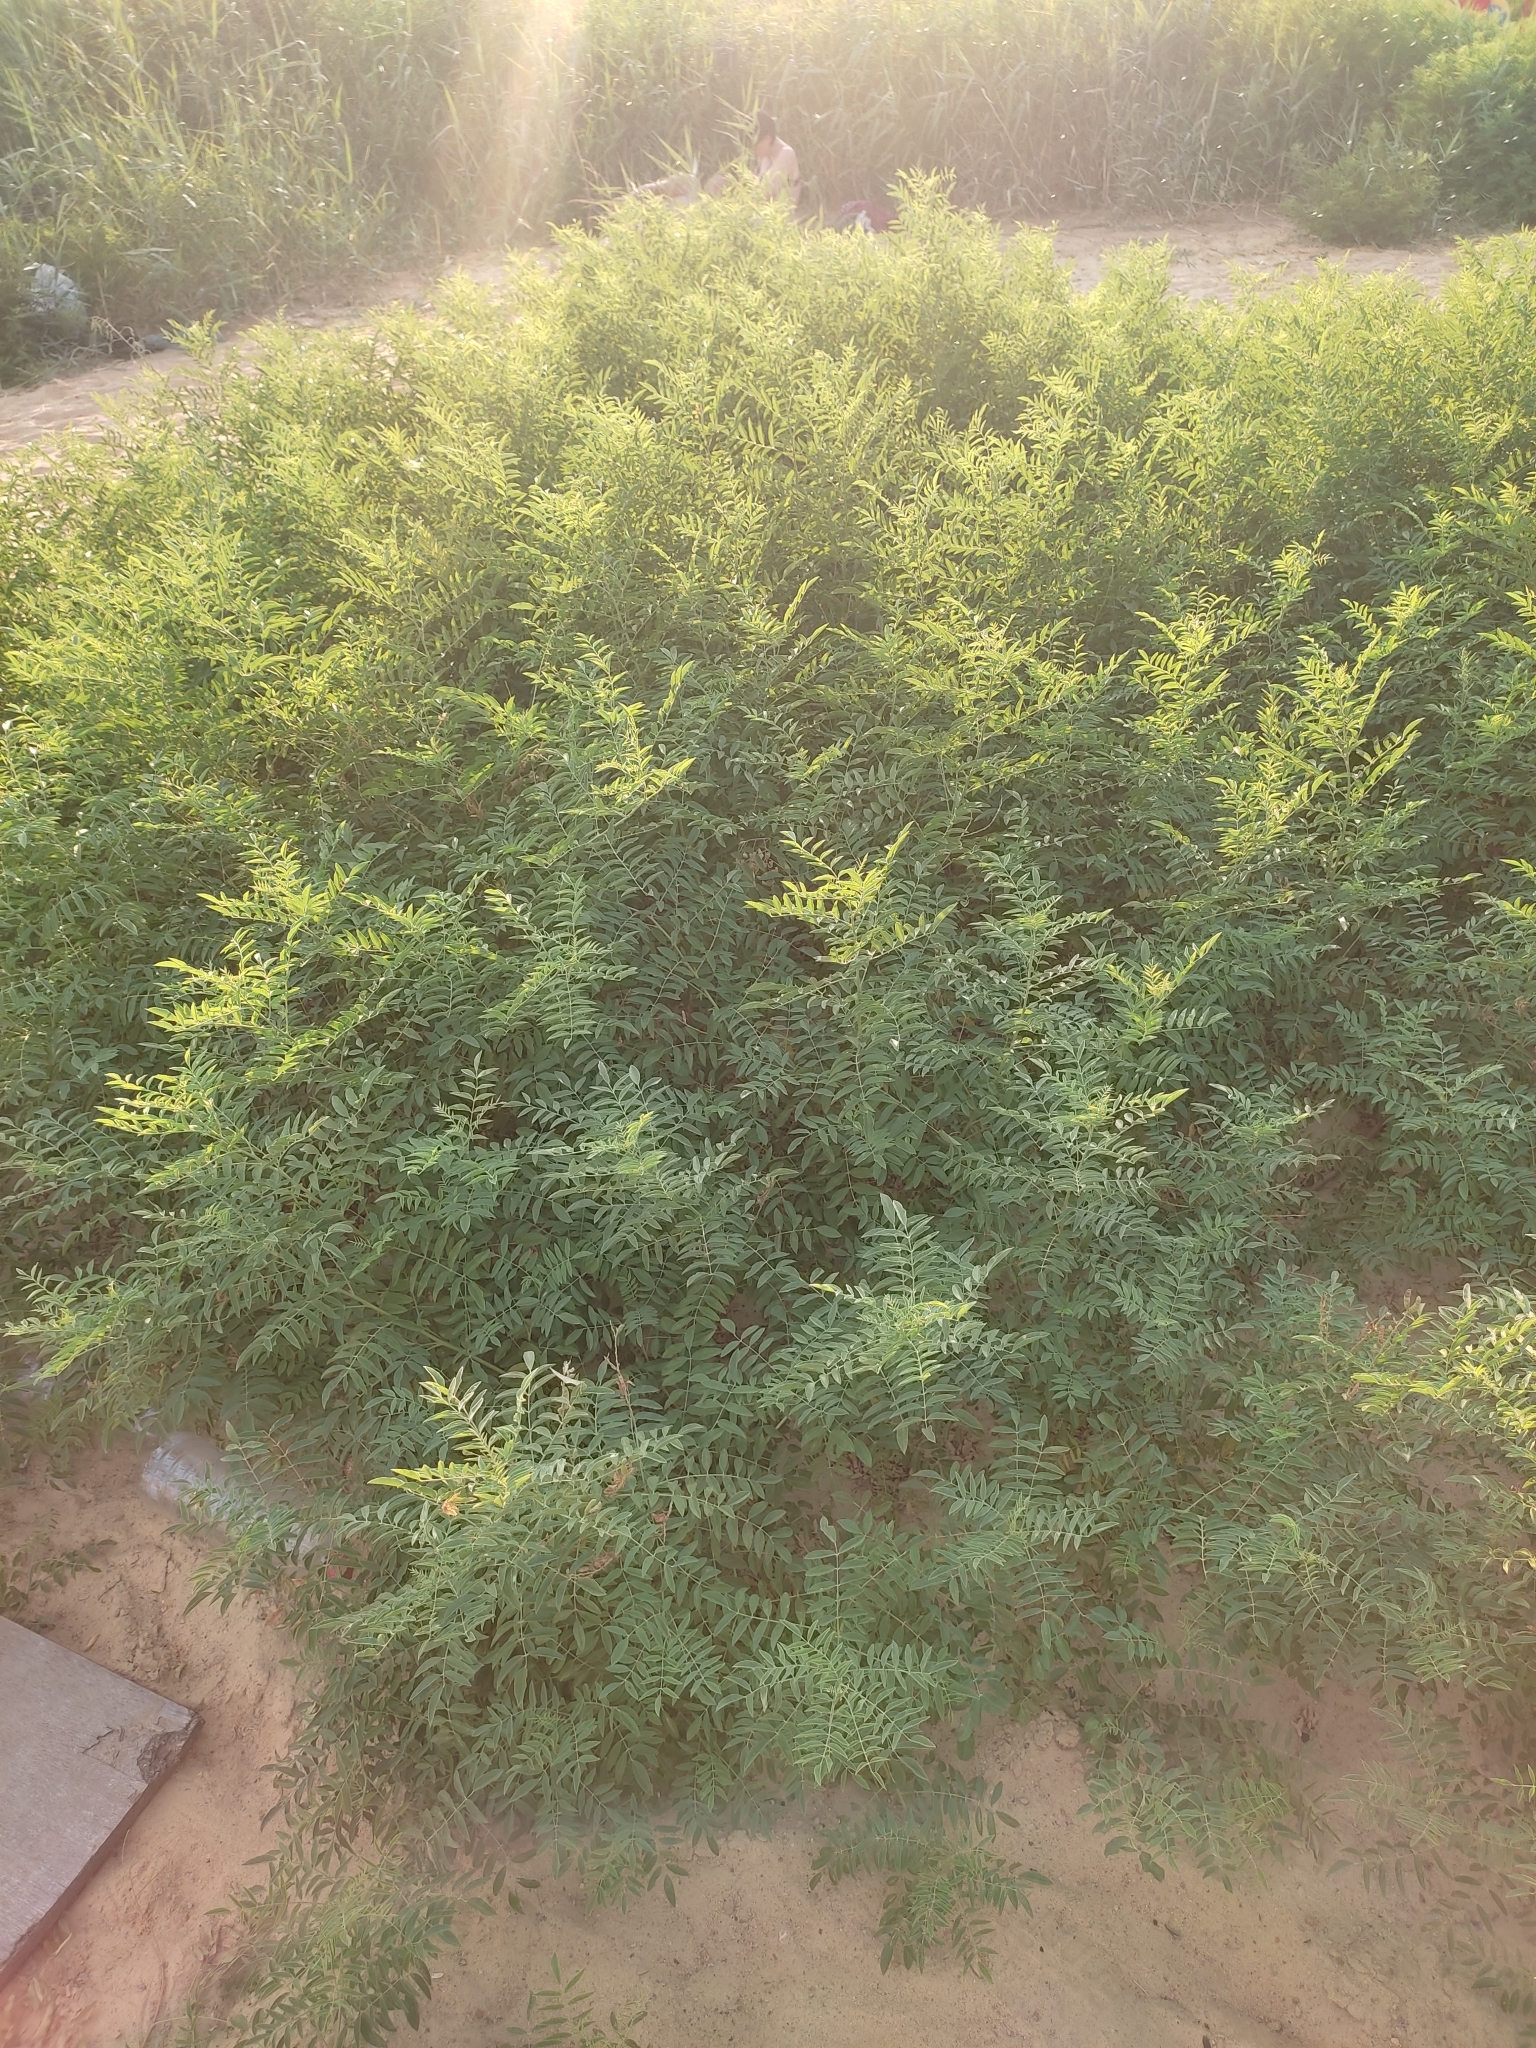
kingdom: Plantae
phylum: Tracheophyta
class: Magnoliopsida
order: Fabales
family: Fabaceae
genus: Glycyrrhiza
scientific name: Glycyrrhiza glabra
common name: Liquorice
